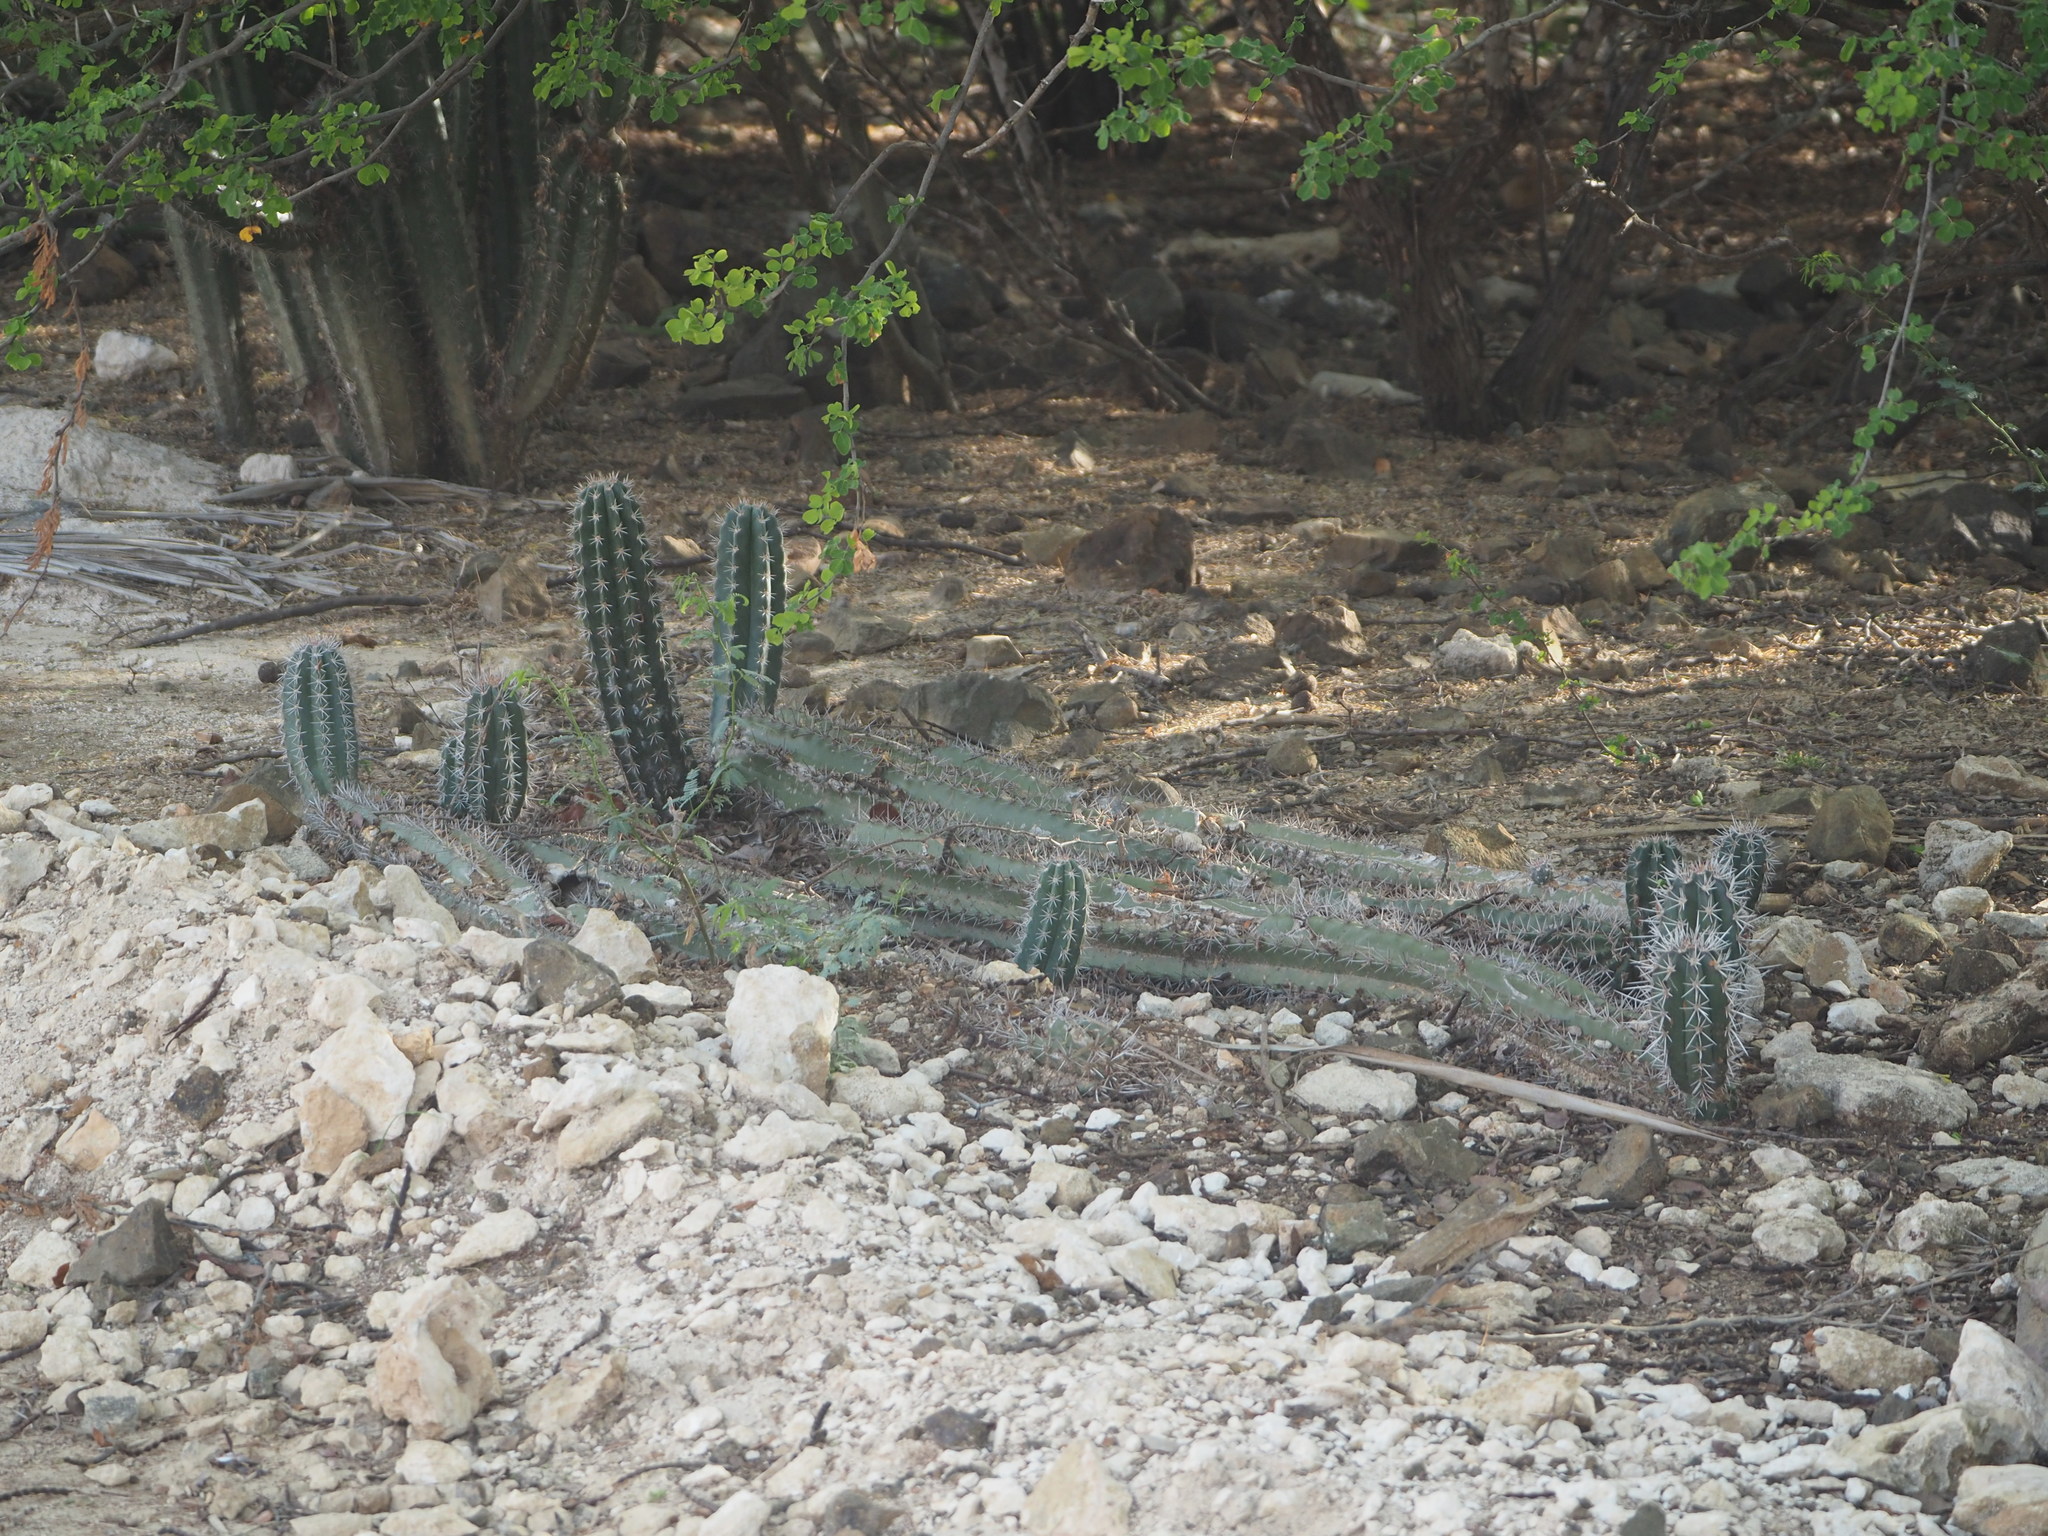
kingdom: Plantae
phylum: Tracheophyta
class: Magnoliopsida
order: Caryophyllales
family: Cactaceae
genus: Stenocereus
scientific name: Stenocereus griseus
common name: Tall candelabra cactus
